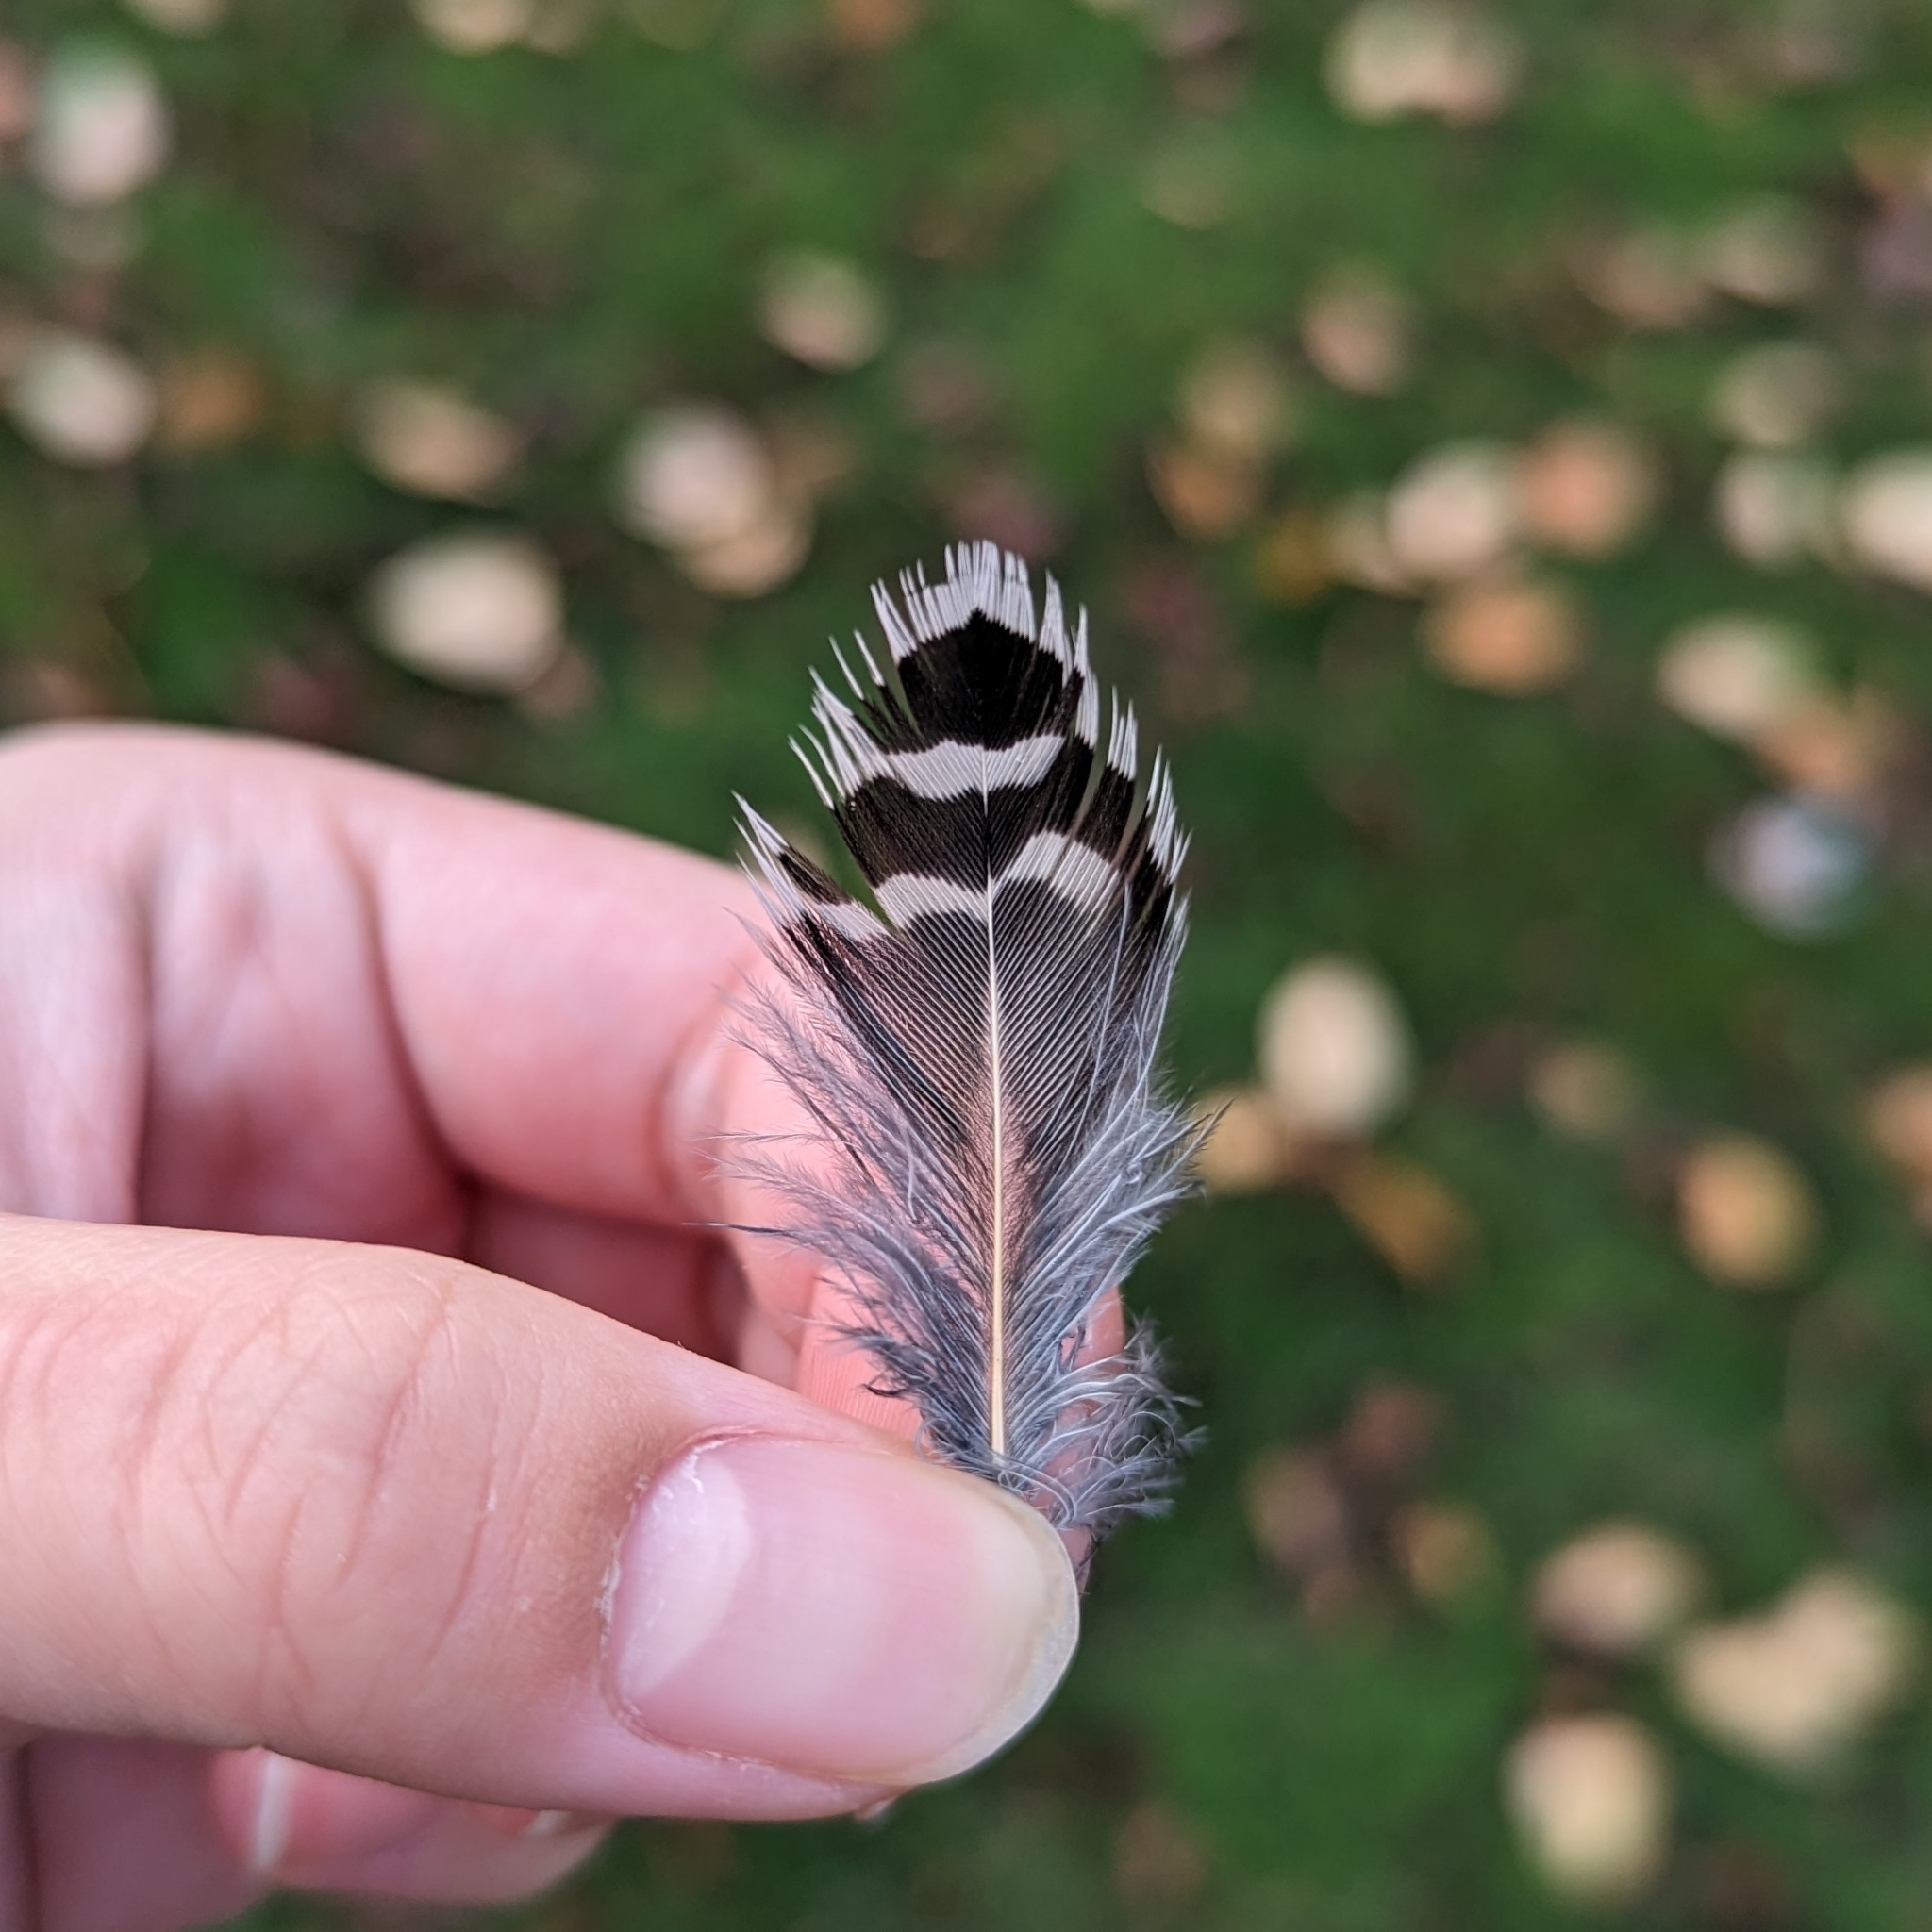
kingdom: Animalia
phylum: Chordata
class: Aves
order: Piciformes
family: Picidae
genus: Colaptes
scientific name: Colaptes auratus
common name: Northern flicker
